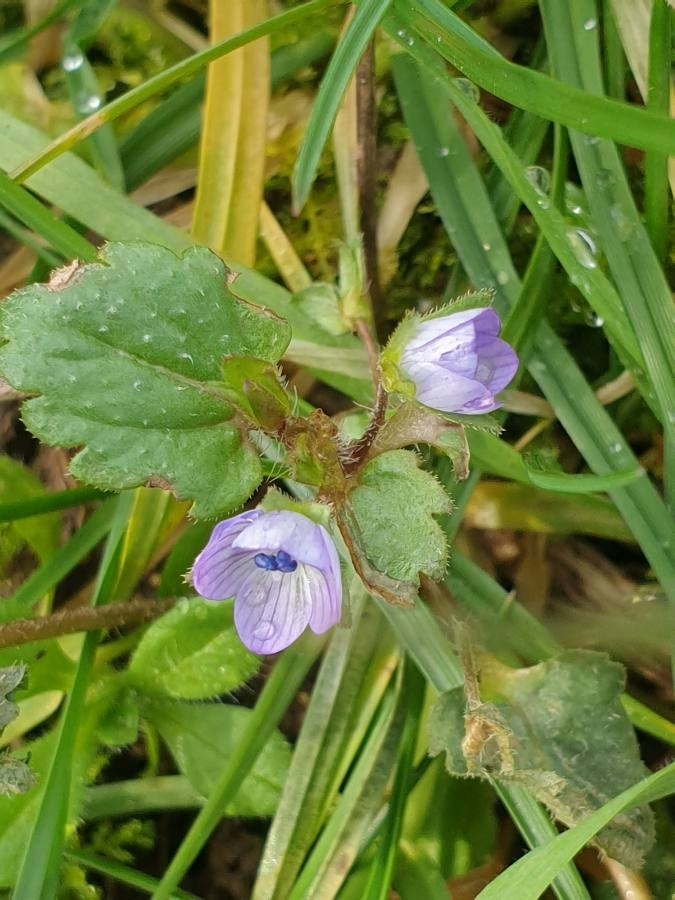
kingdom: Plantae
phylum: Tracheophyta
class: Magnoliopsida
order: Lamiales
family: Plantaginaceae
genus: Veronica
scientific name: Veronica persica
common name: Common field-speedwell
